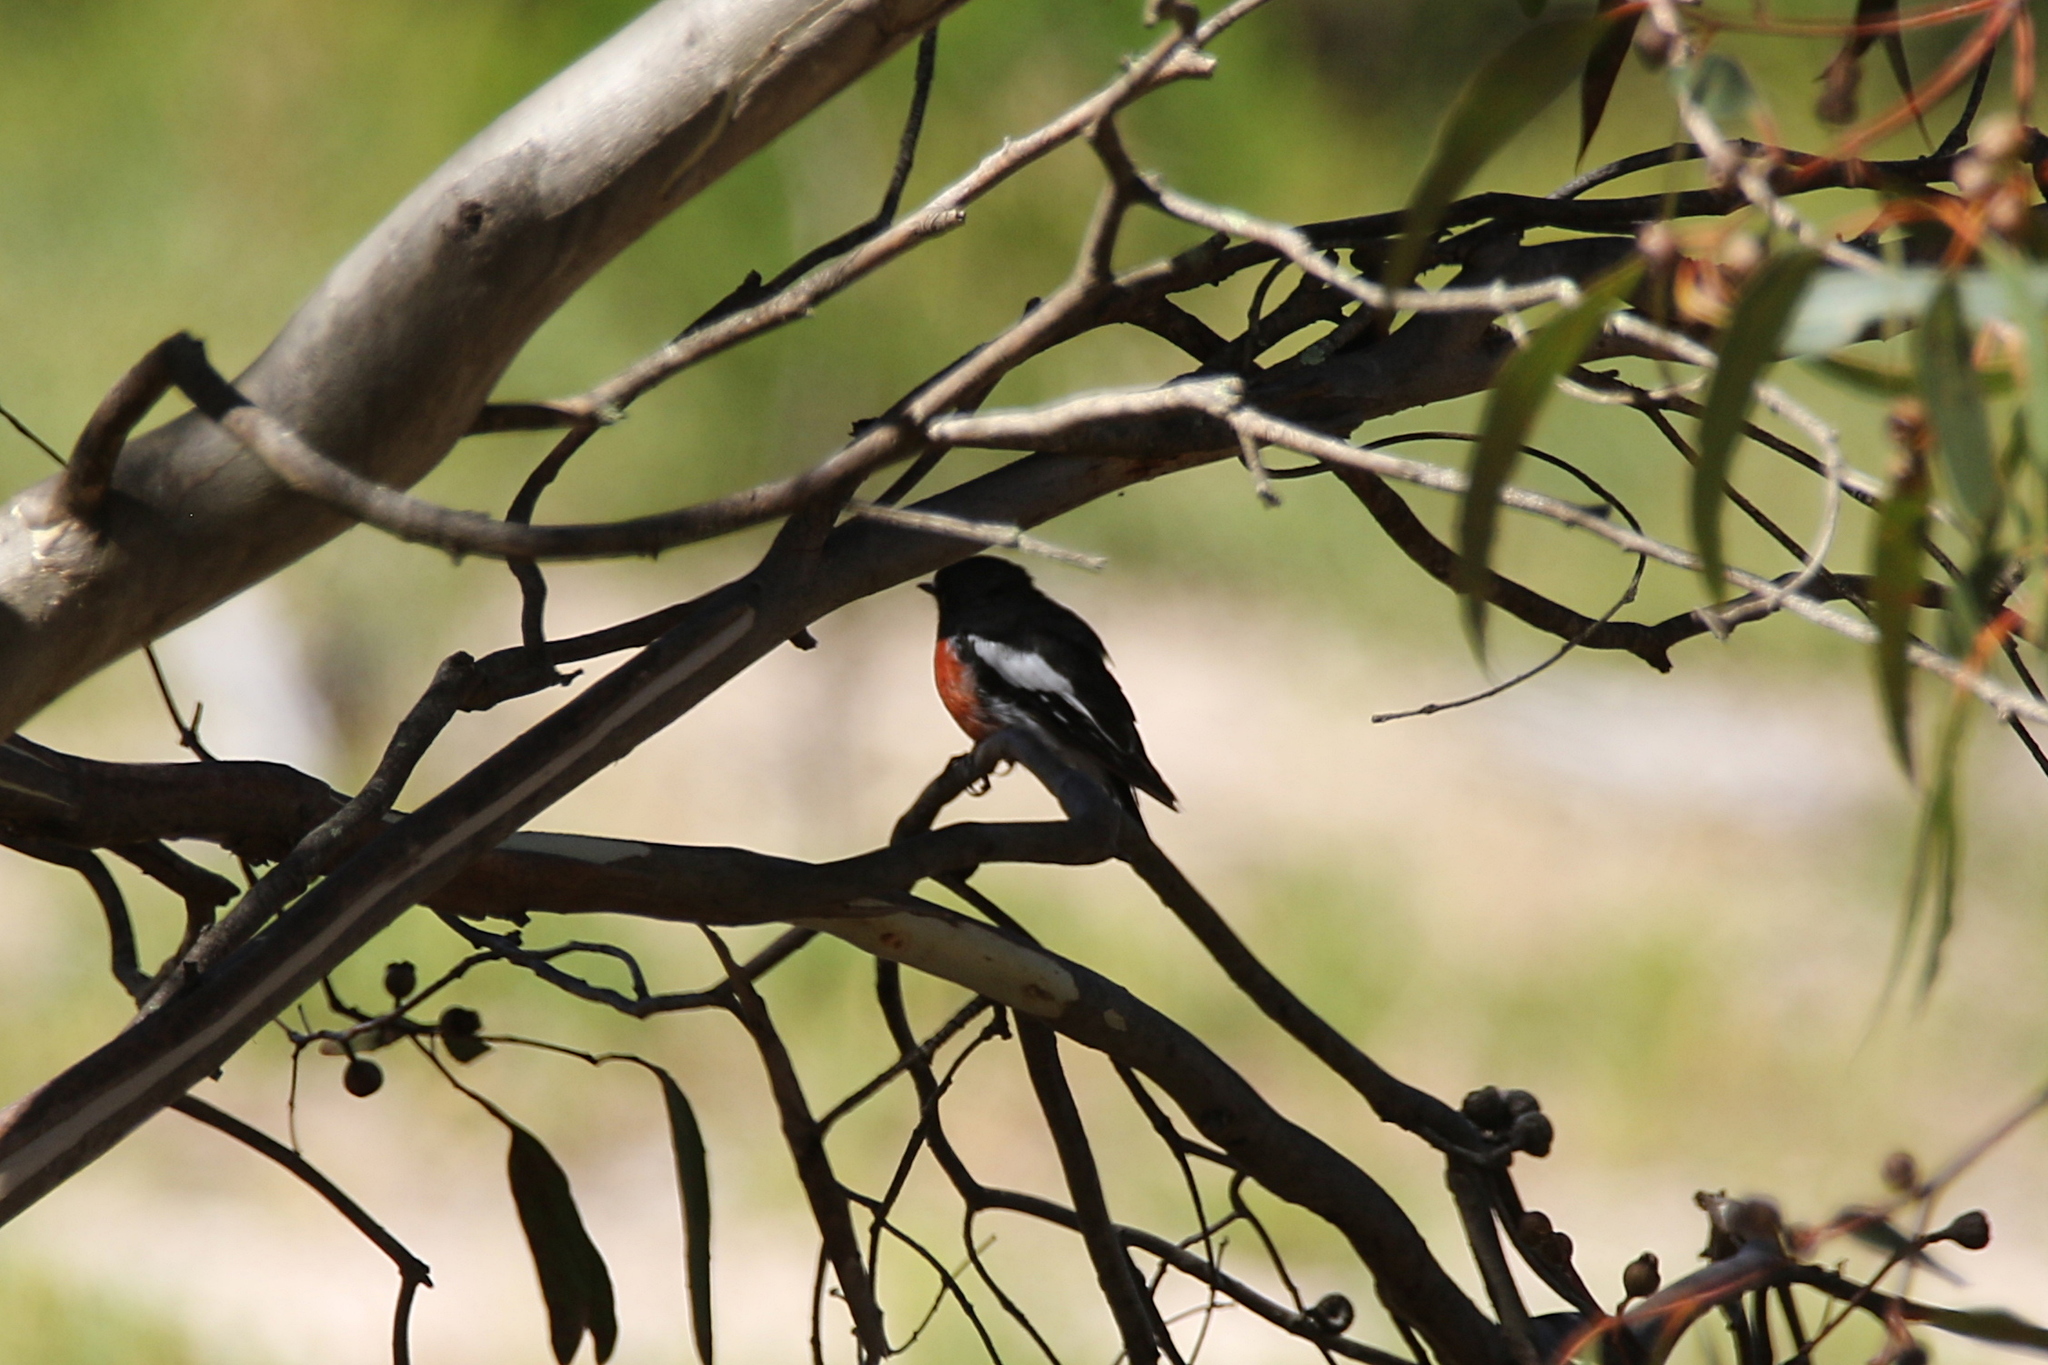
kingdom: Animalia
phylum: Chordata
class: Aves
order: Passeriformes
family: Petroicidae
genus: Petroica
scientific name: Petroica boodang
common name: Scarlet robin
